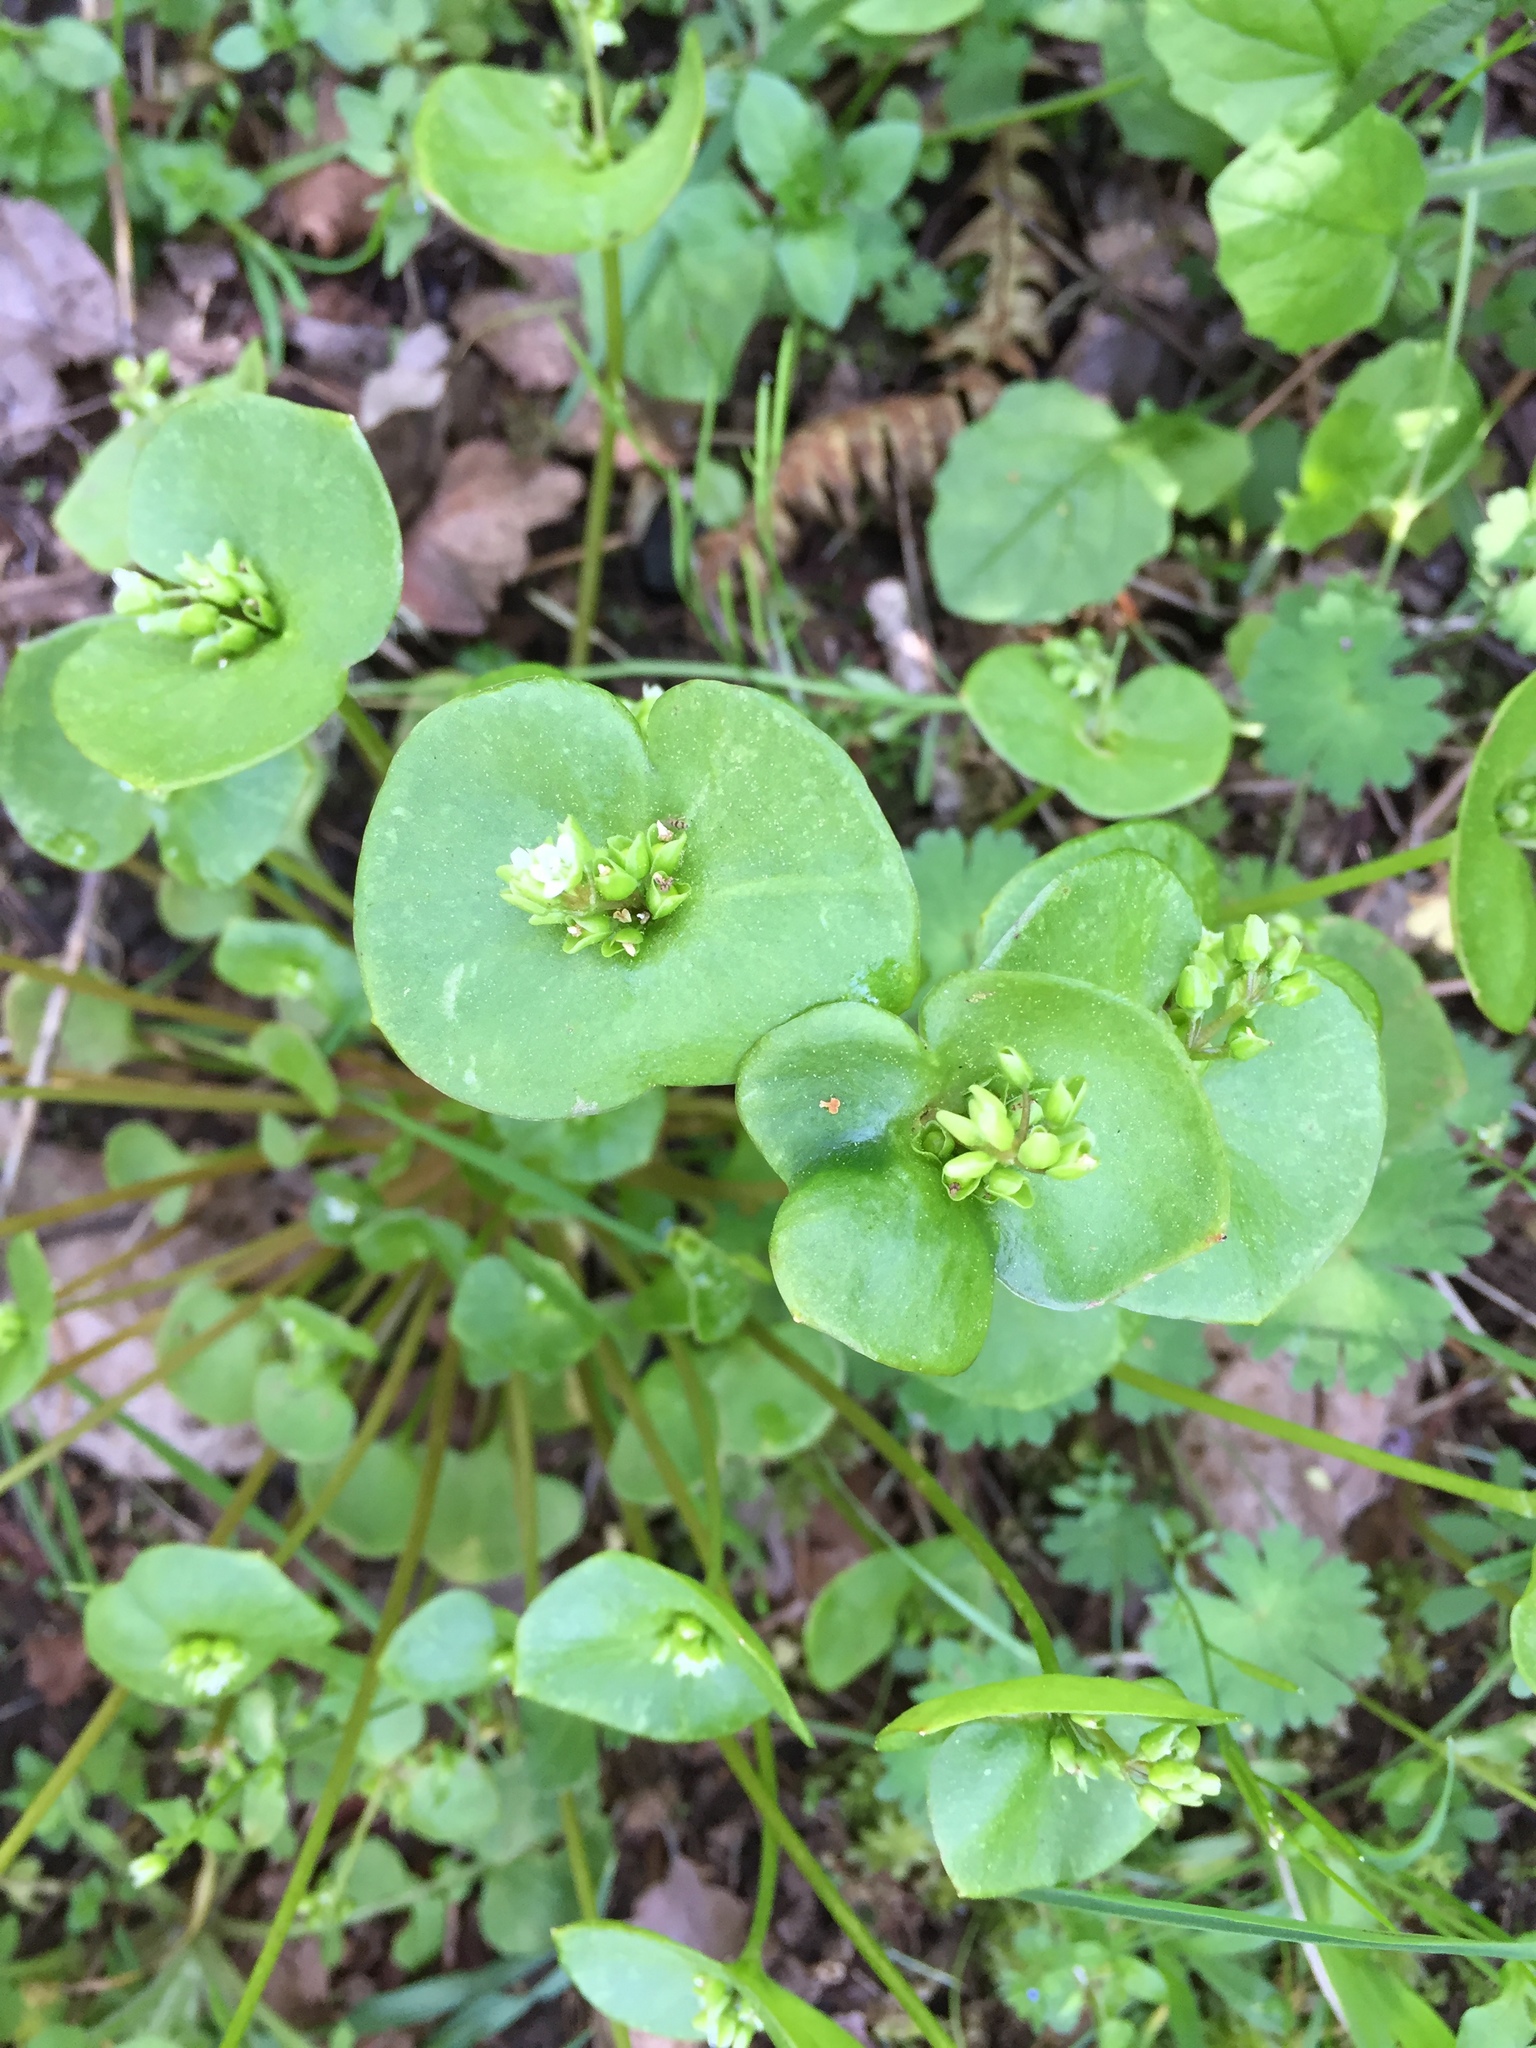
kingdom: Plantae
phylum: Tracheophyta
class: Magnoliopsida
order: Caryophyllales
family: Montiaceae
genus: Claytonia
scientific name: Claytonia perfoliata
